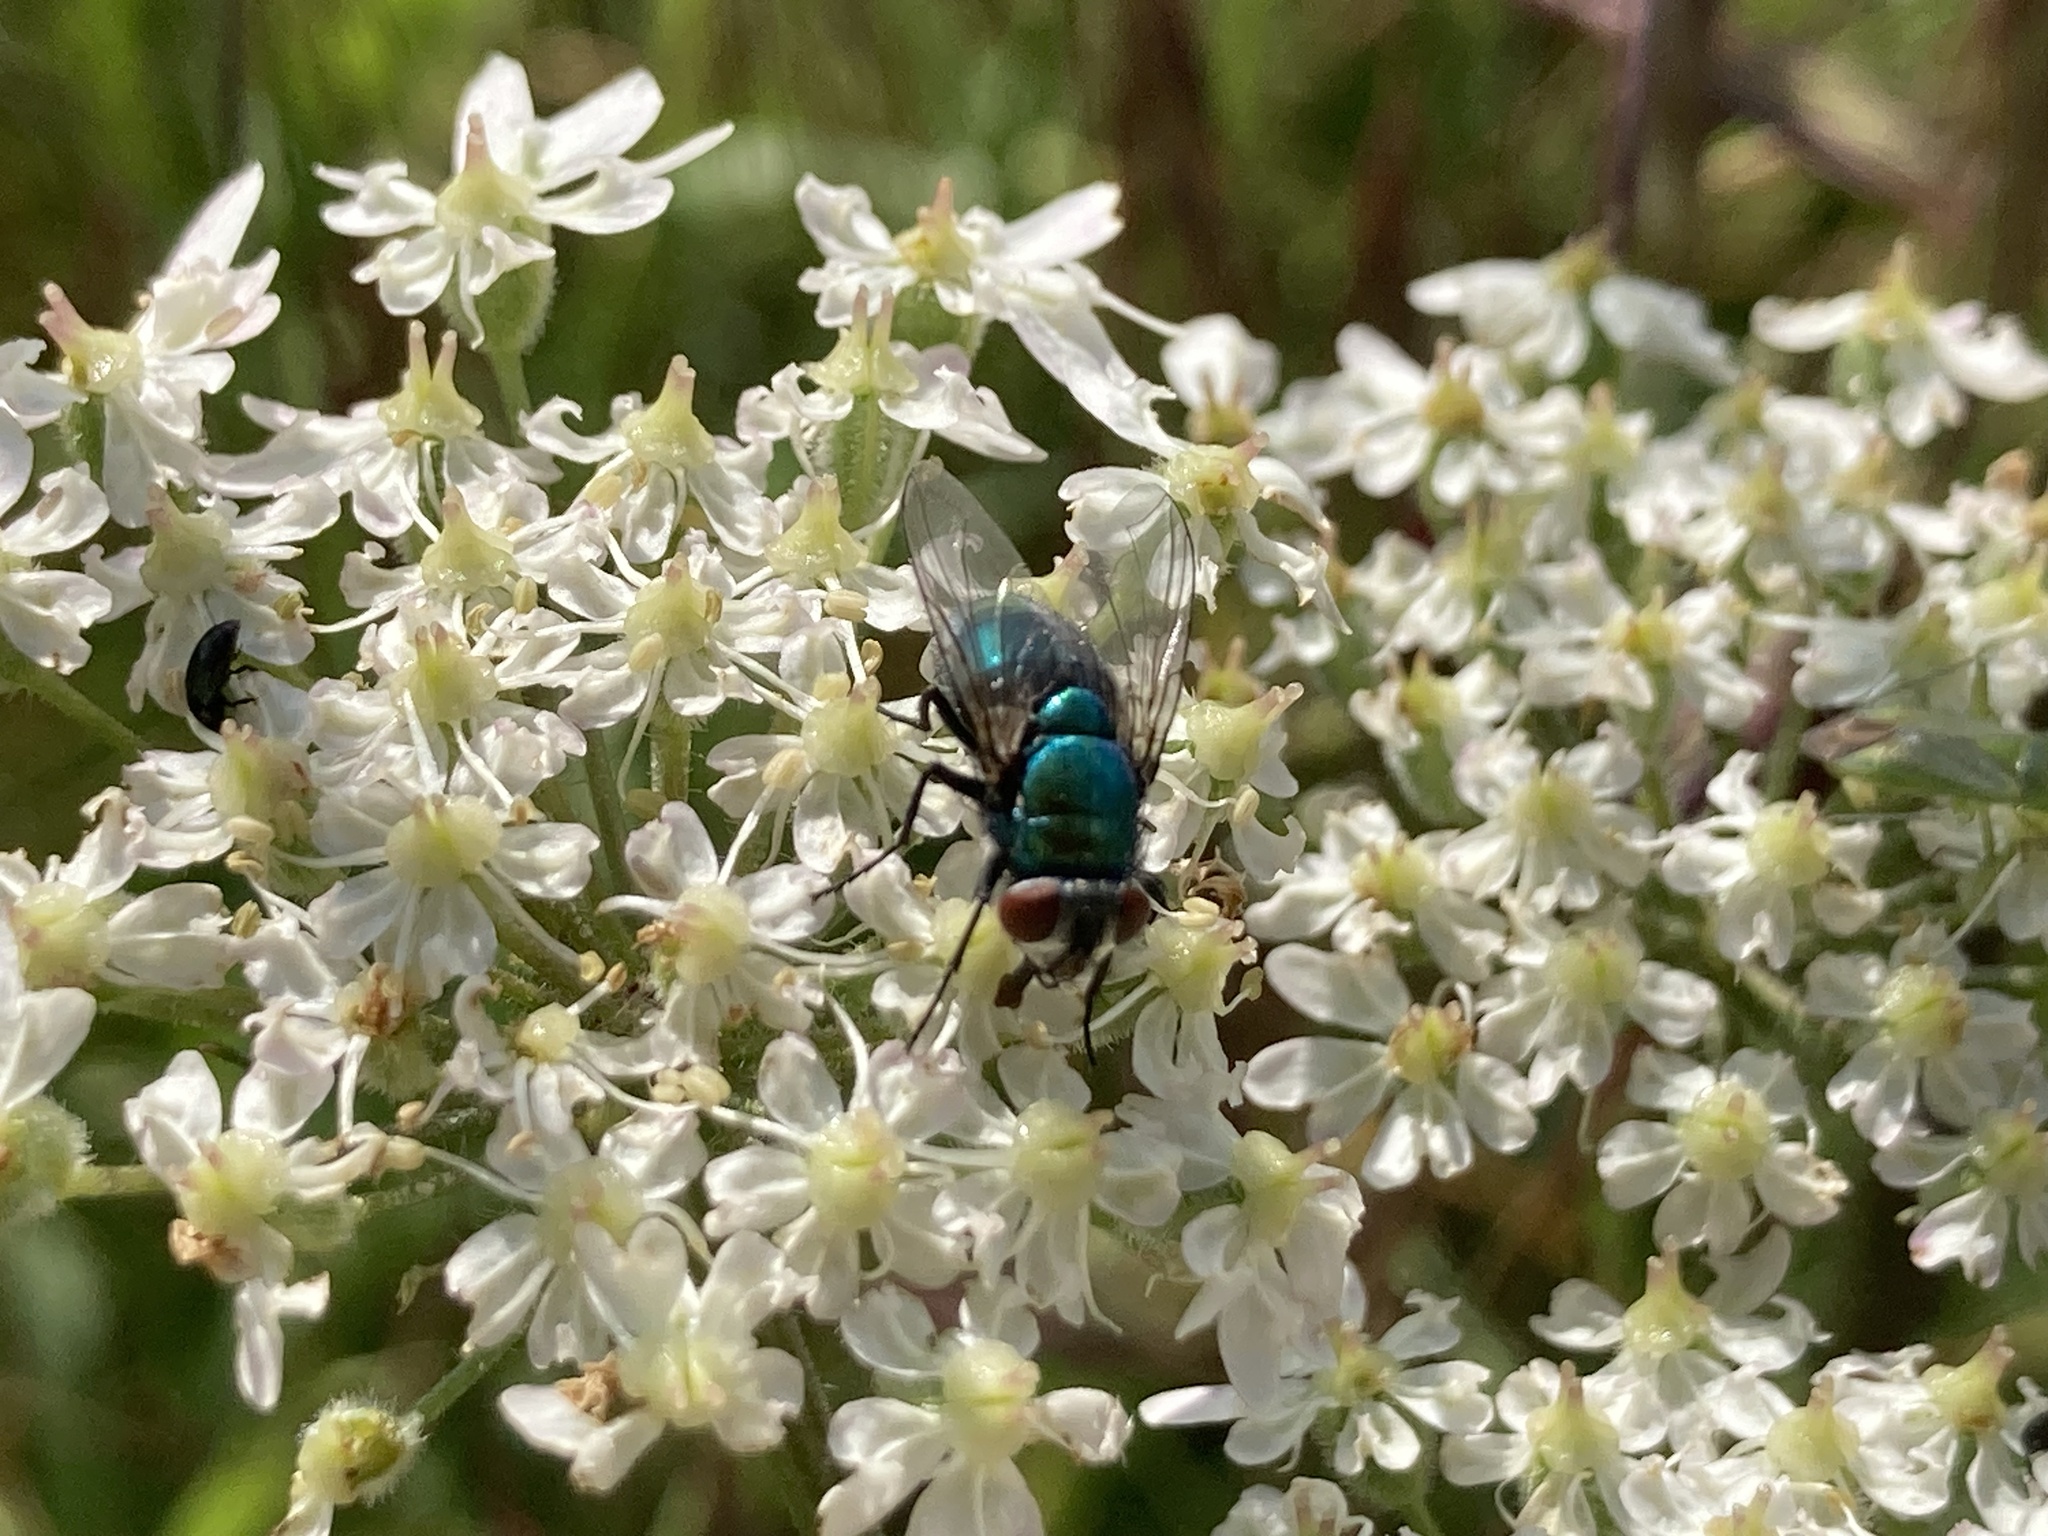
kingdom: Animalia
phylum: Arthropoda
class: Insecta
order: Diptera
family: Calliphoridae
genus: Lucilia
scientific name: Lucilia
